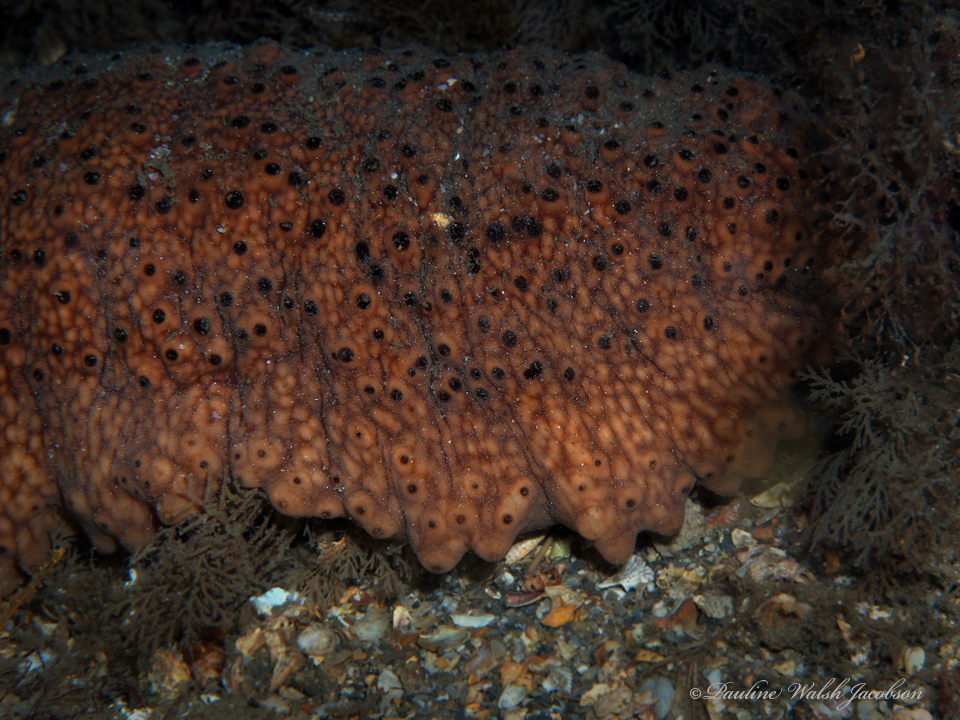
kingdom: Animalia
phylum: Echinodermata
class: Holothuroidea
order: Synallactida
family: Stichopodidae
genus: Isostichopus
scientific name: Isostichopus badionotus
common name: Chocolate chip cucumber
